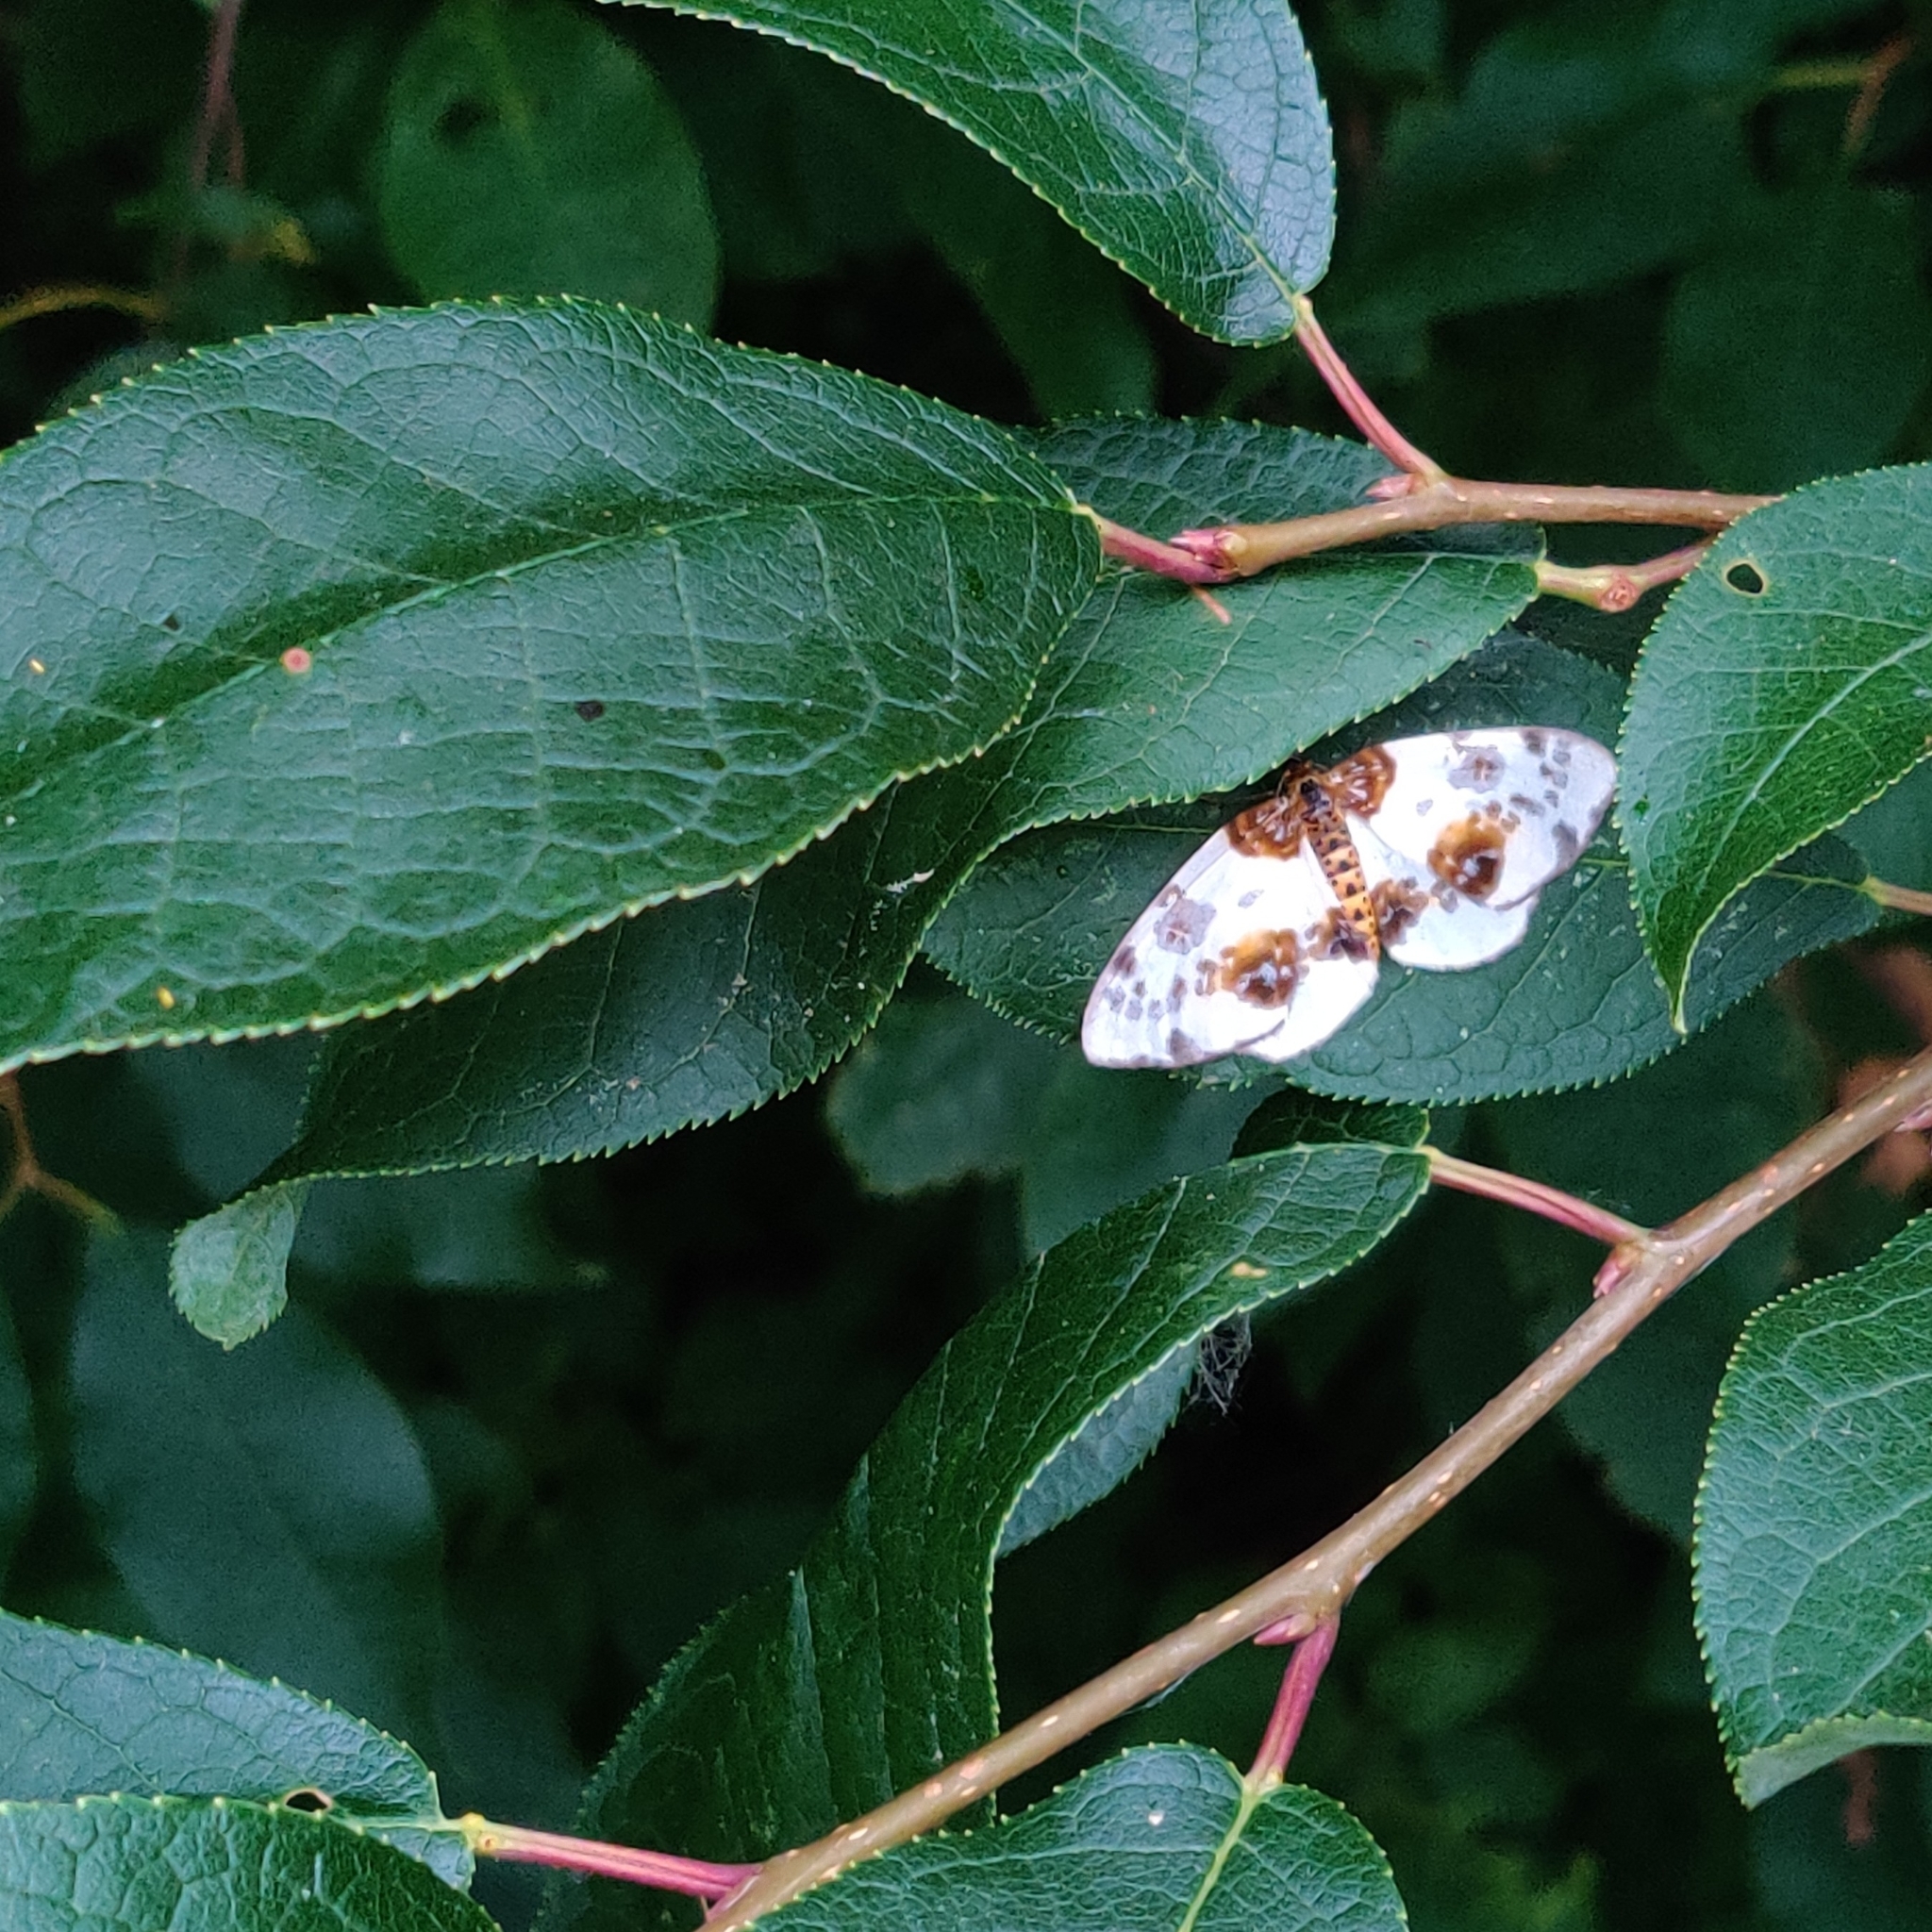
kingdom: Animalia
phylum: Arthropoda
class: Insecta
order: Lepidoptera
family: Geometridae
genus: Abraxas
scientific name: Abraxas sylvata
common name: Clouded magpie
